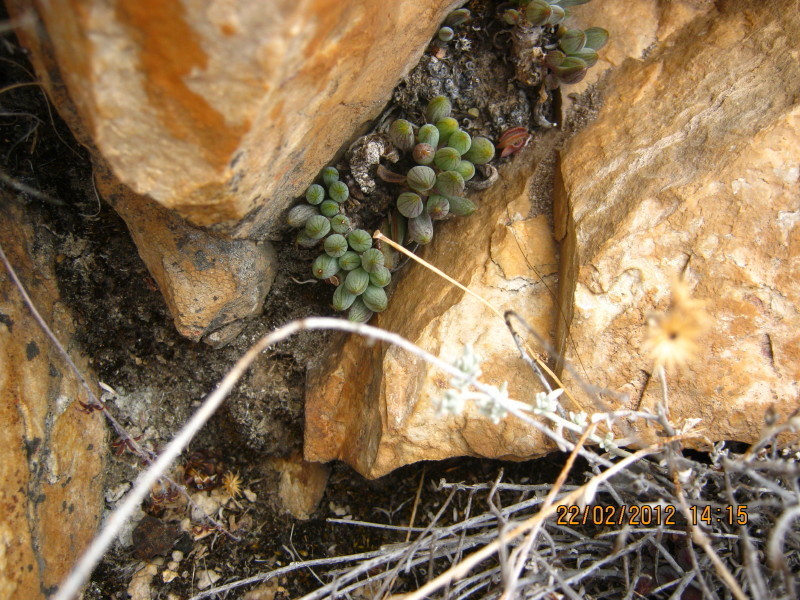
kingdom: Plantae
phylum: Tracheophyta
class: Magnoliopsida
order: Caryophyllales
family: Aizoaceae
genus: Antimima
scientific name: Antimima leucanthera
